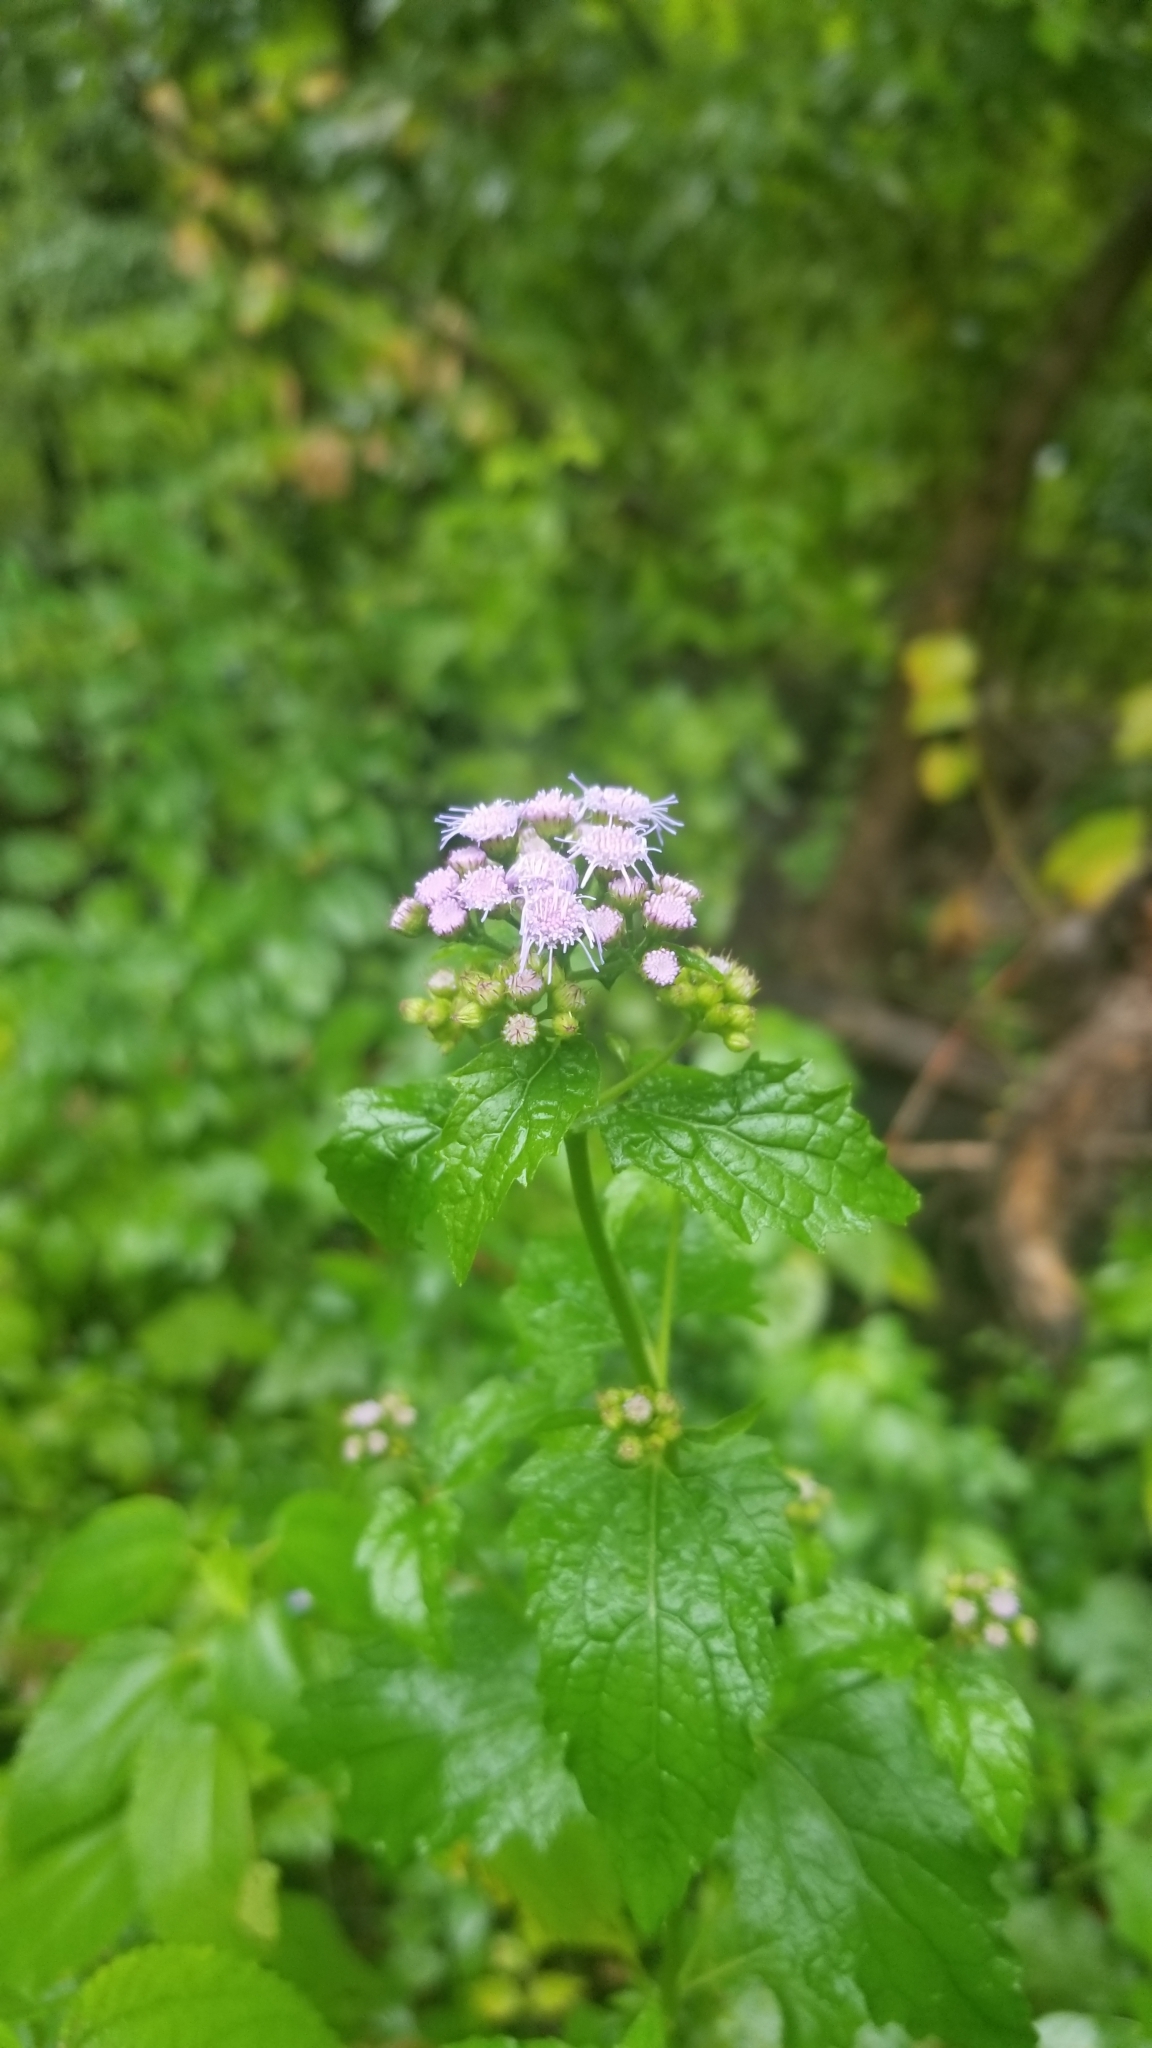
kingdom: Plantae
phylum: Tracheophyta
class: Magnoliopsida
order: Asterales
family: Asteraceae
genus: Conoclinium
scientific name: Conoclinium coelestinum
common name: Blue mistflower
